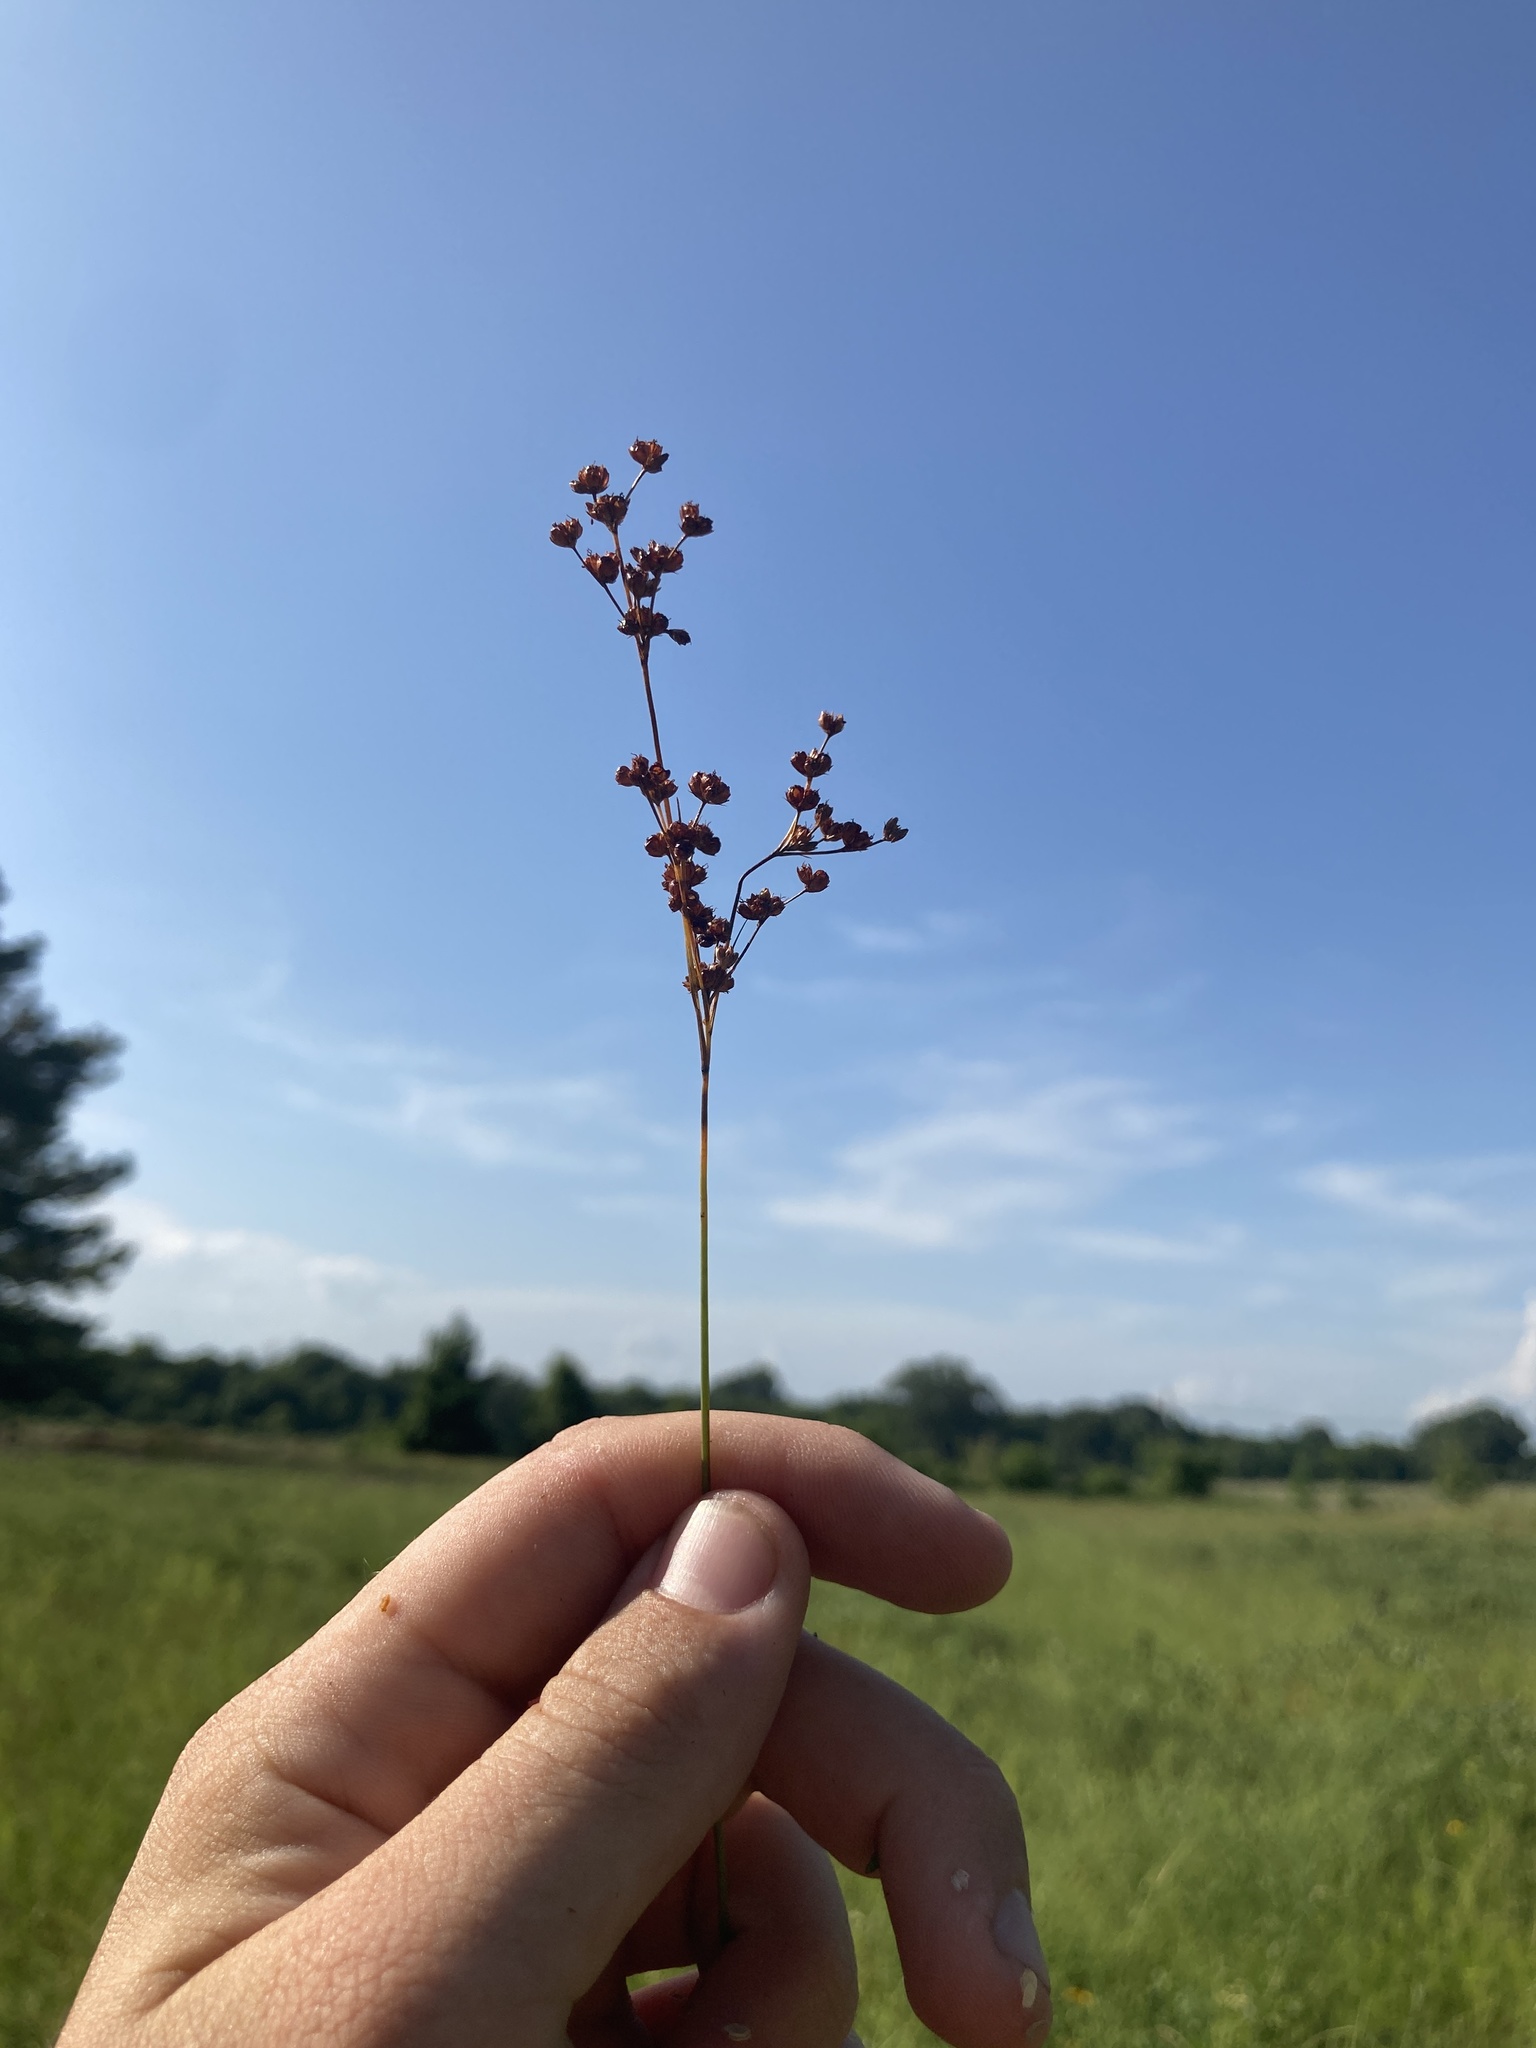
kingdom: Plantae
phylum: Tracheophyta
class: Liliopsida
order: Poales
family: Juncaceae
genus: Juncus
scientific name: Juncus marginatus
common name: Grass-leaf rush
